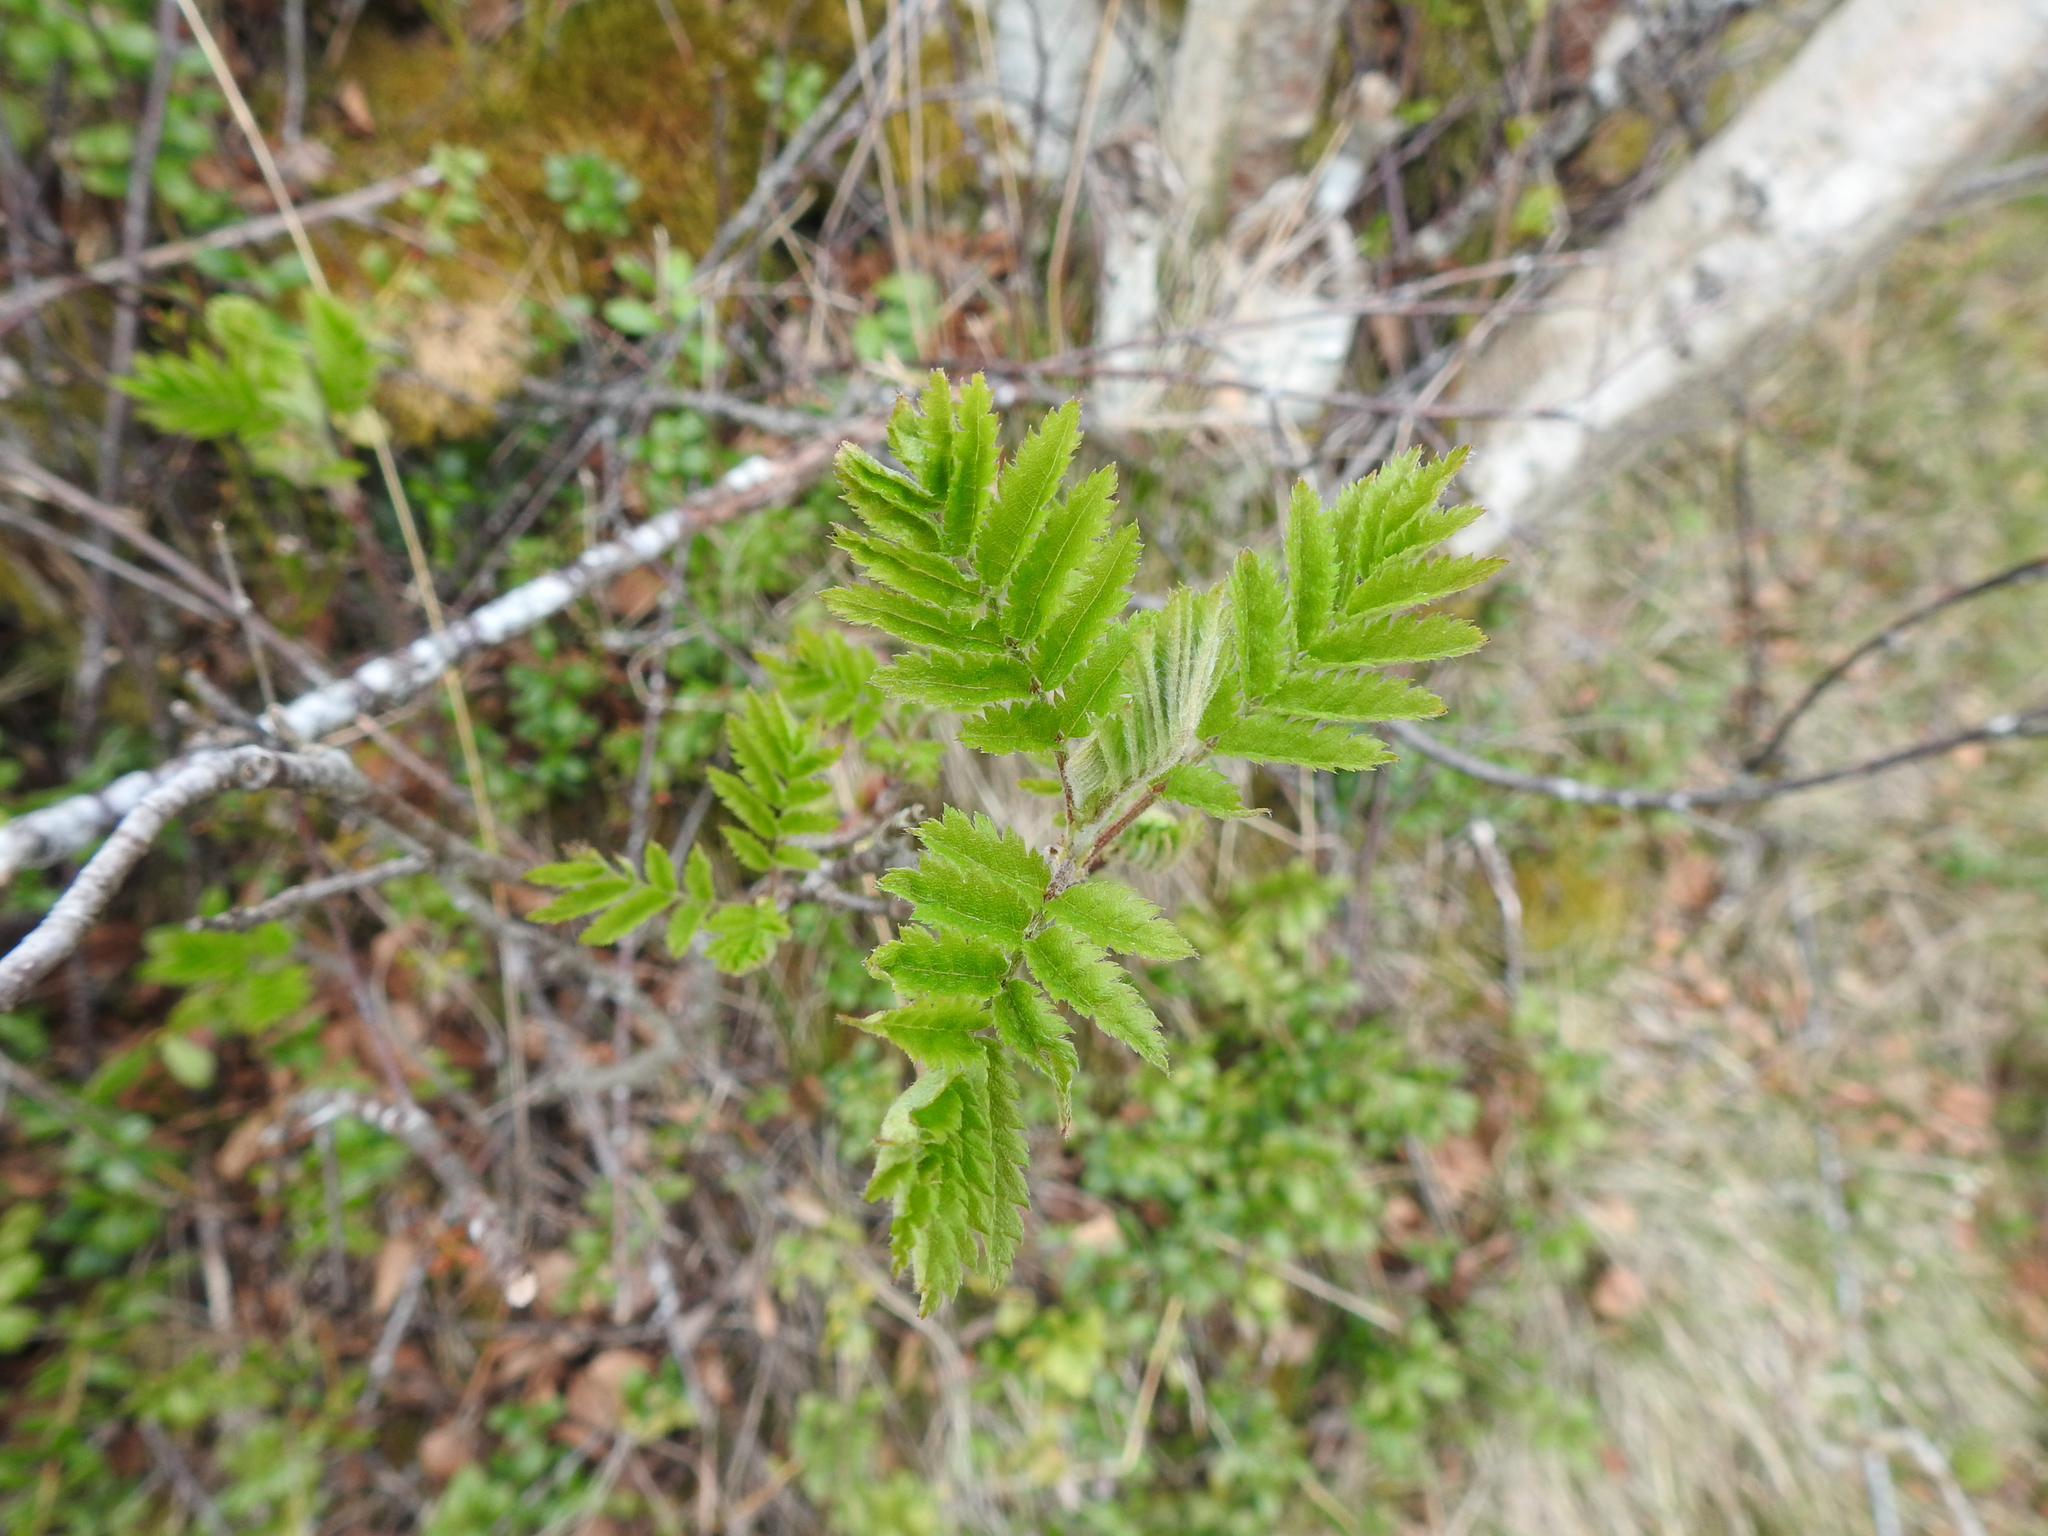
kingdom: Plantae
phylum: Tracheophyta
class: Magnoliopsida
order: Rosales
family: Rosaceae
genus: Sorbus
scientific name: Sorbus aucuparia
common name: Rowan
